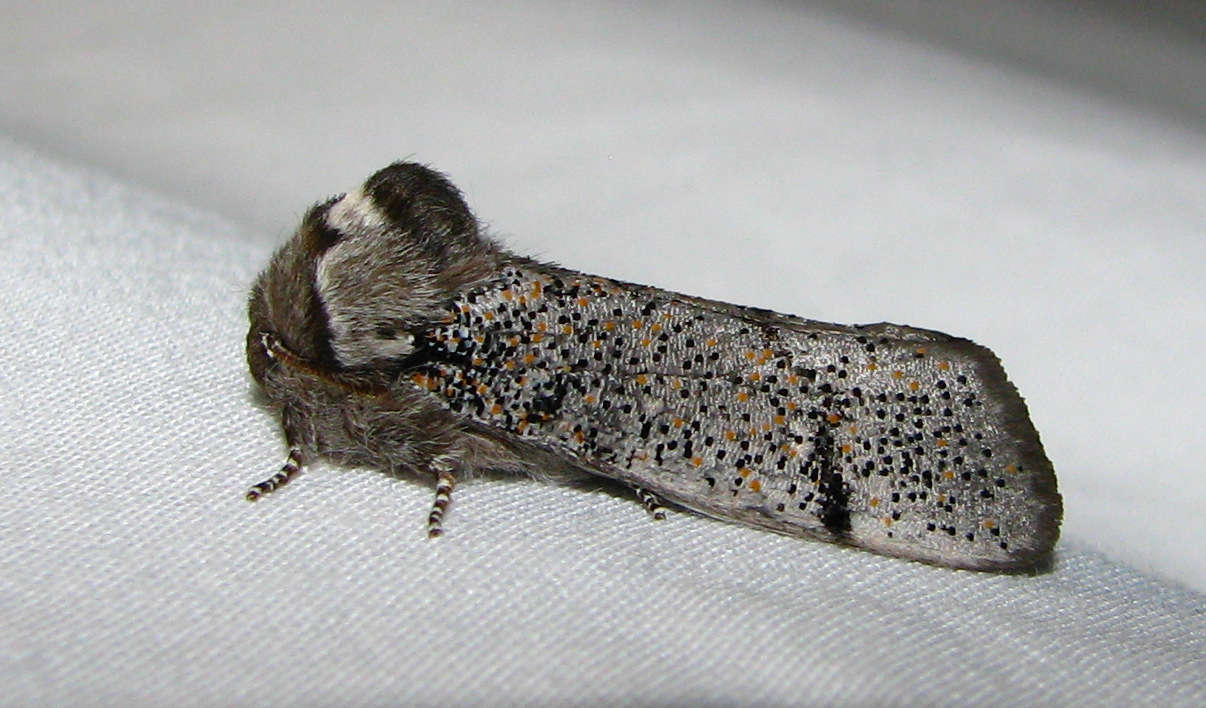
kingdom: Animalia
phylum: Arthropoda
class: Insecta
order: Lepidoptera
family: Oenosandridae
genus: Oenosandra
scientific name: Oenosandra boisduvalii
